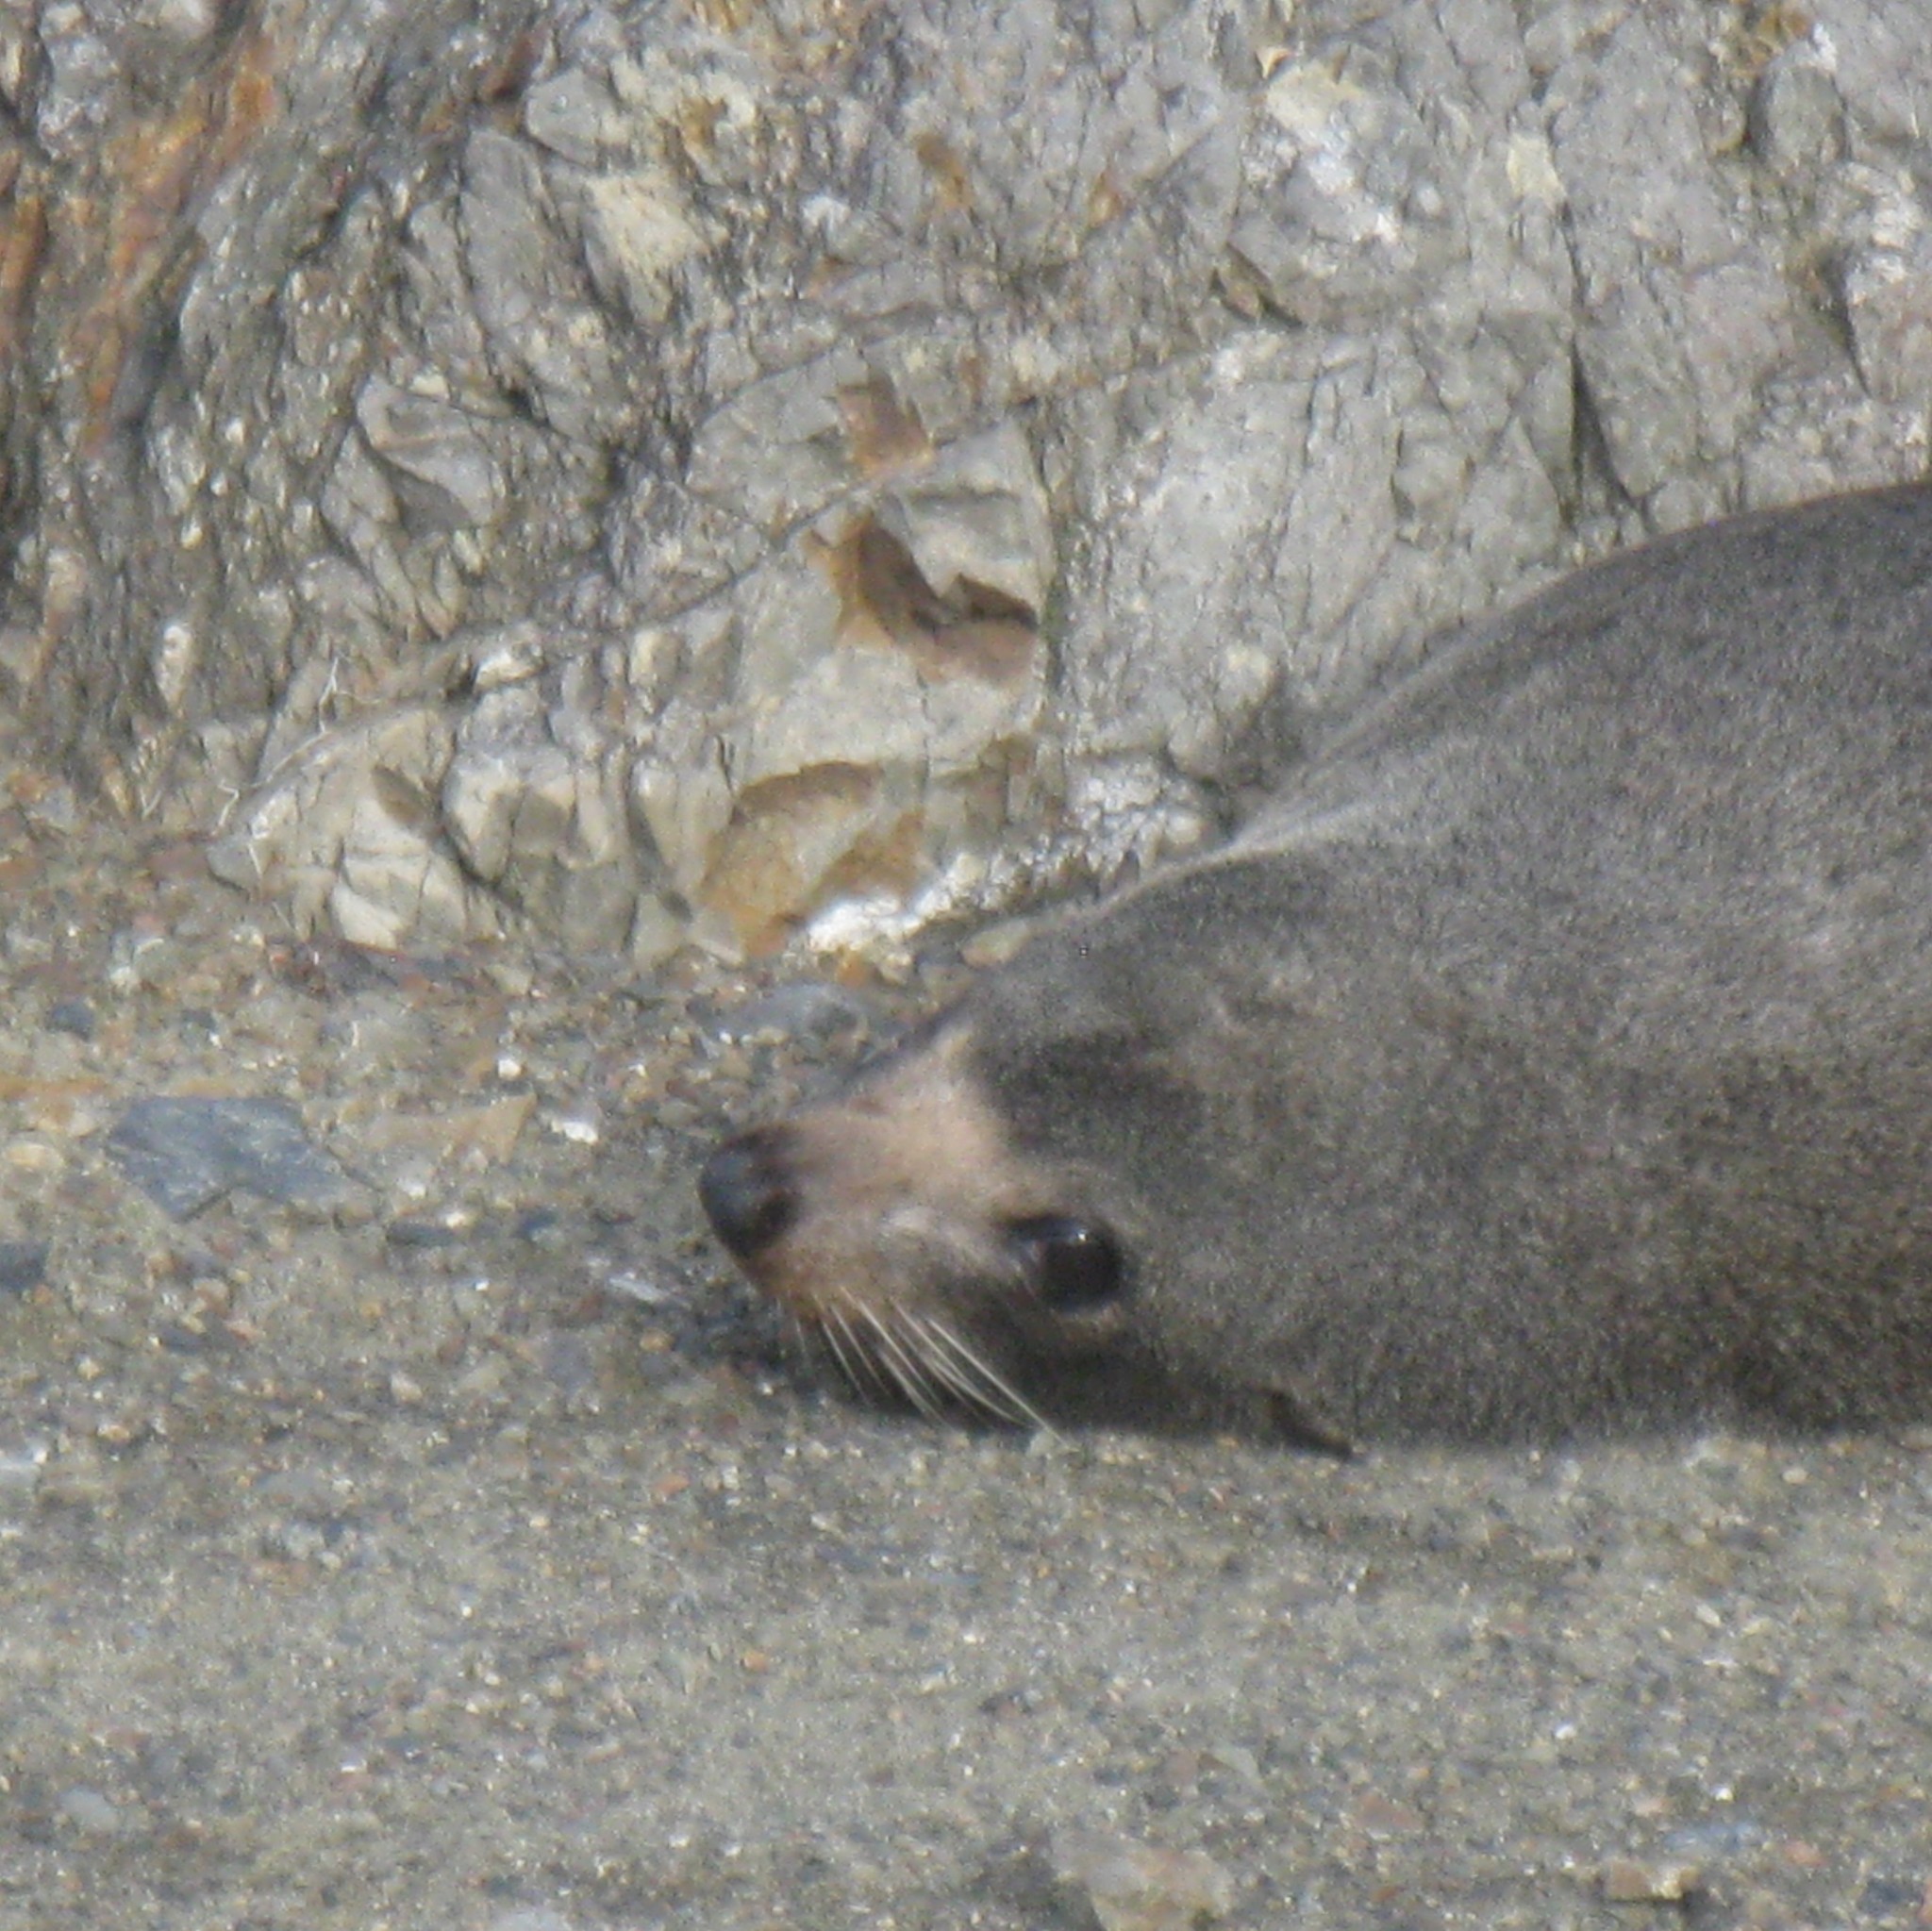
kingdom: Animalia
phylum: Chordata
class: Mammalia
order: Carnivora
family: Otariidae
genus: Arctocephalus
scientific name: Arctocephalus forsteri
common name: New zealand fur seal
